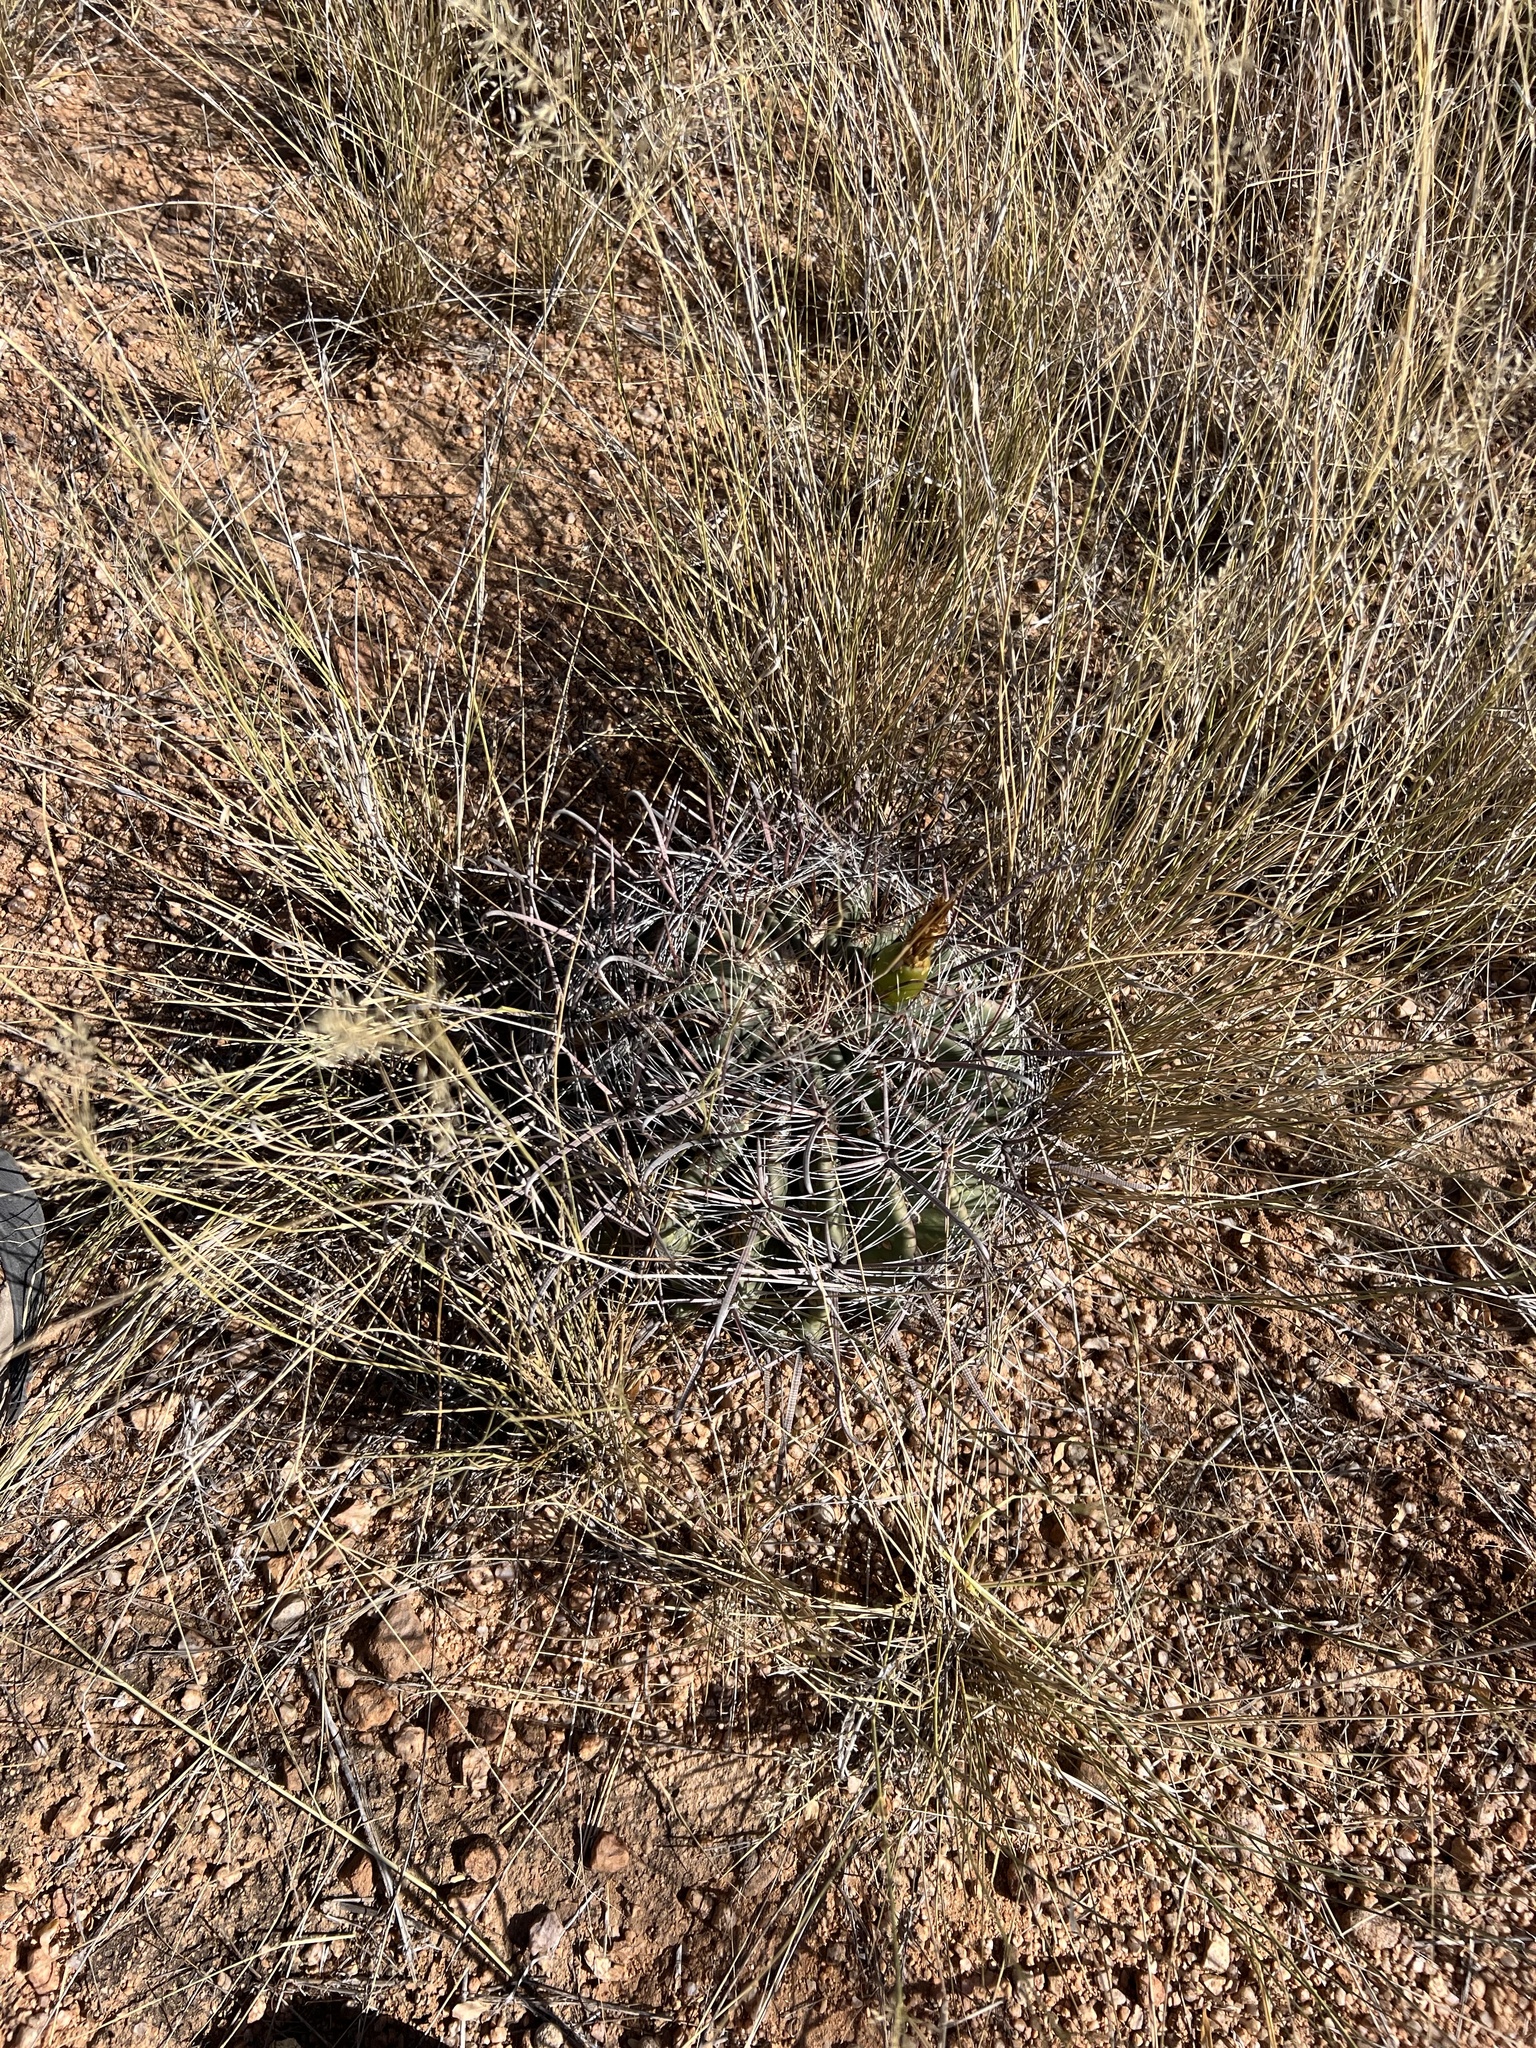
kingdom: Plantae
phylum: Tracheophyta
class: Magnoliopsida
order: Caryophyllales
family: Cactaceae
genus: Ferocactus
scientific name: Ferocactus wislizeni
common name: Candy barrel cactus
